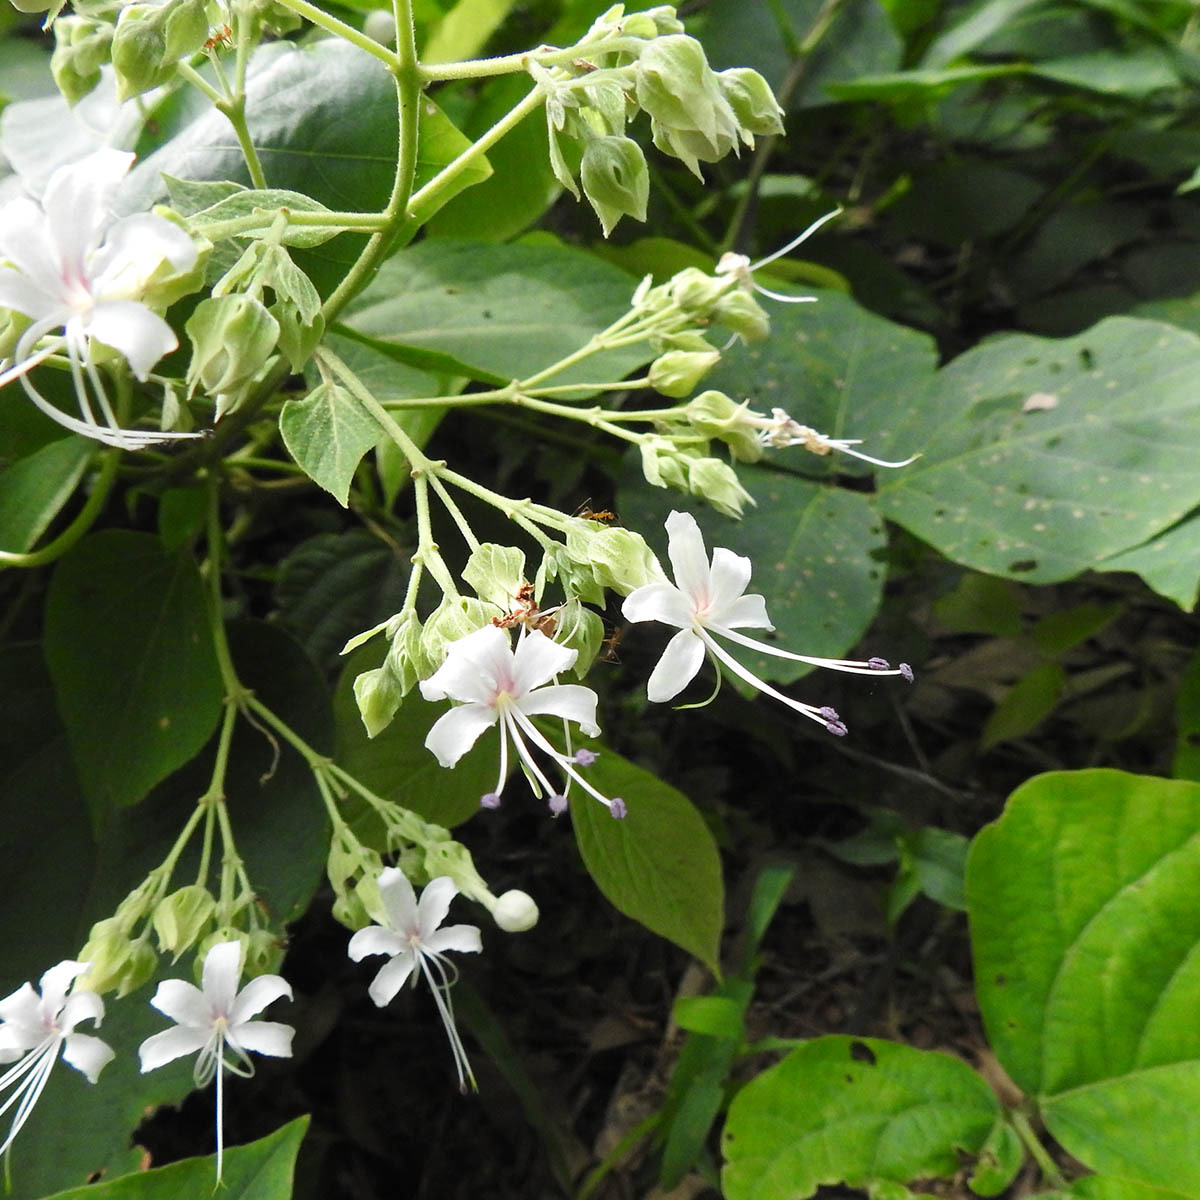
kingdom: Plantae
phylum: Tracheophyta
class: Magnoliopsida
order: Lamiales
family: Lamiaceae
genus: Clerodendrum
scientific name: Clerodendrum infortunatum
